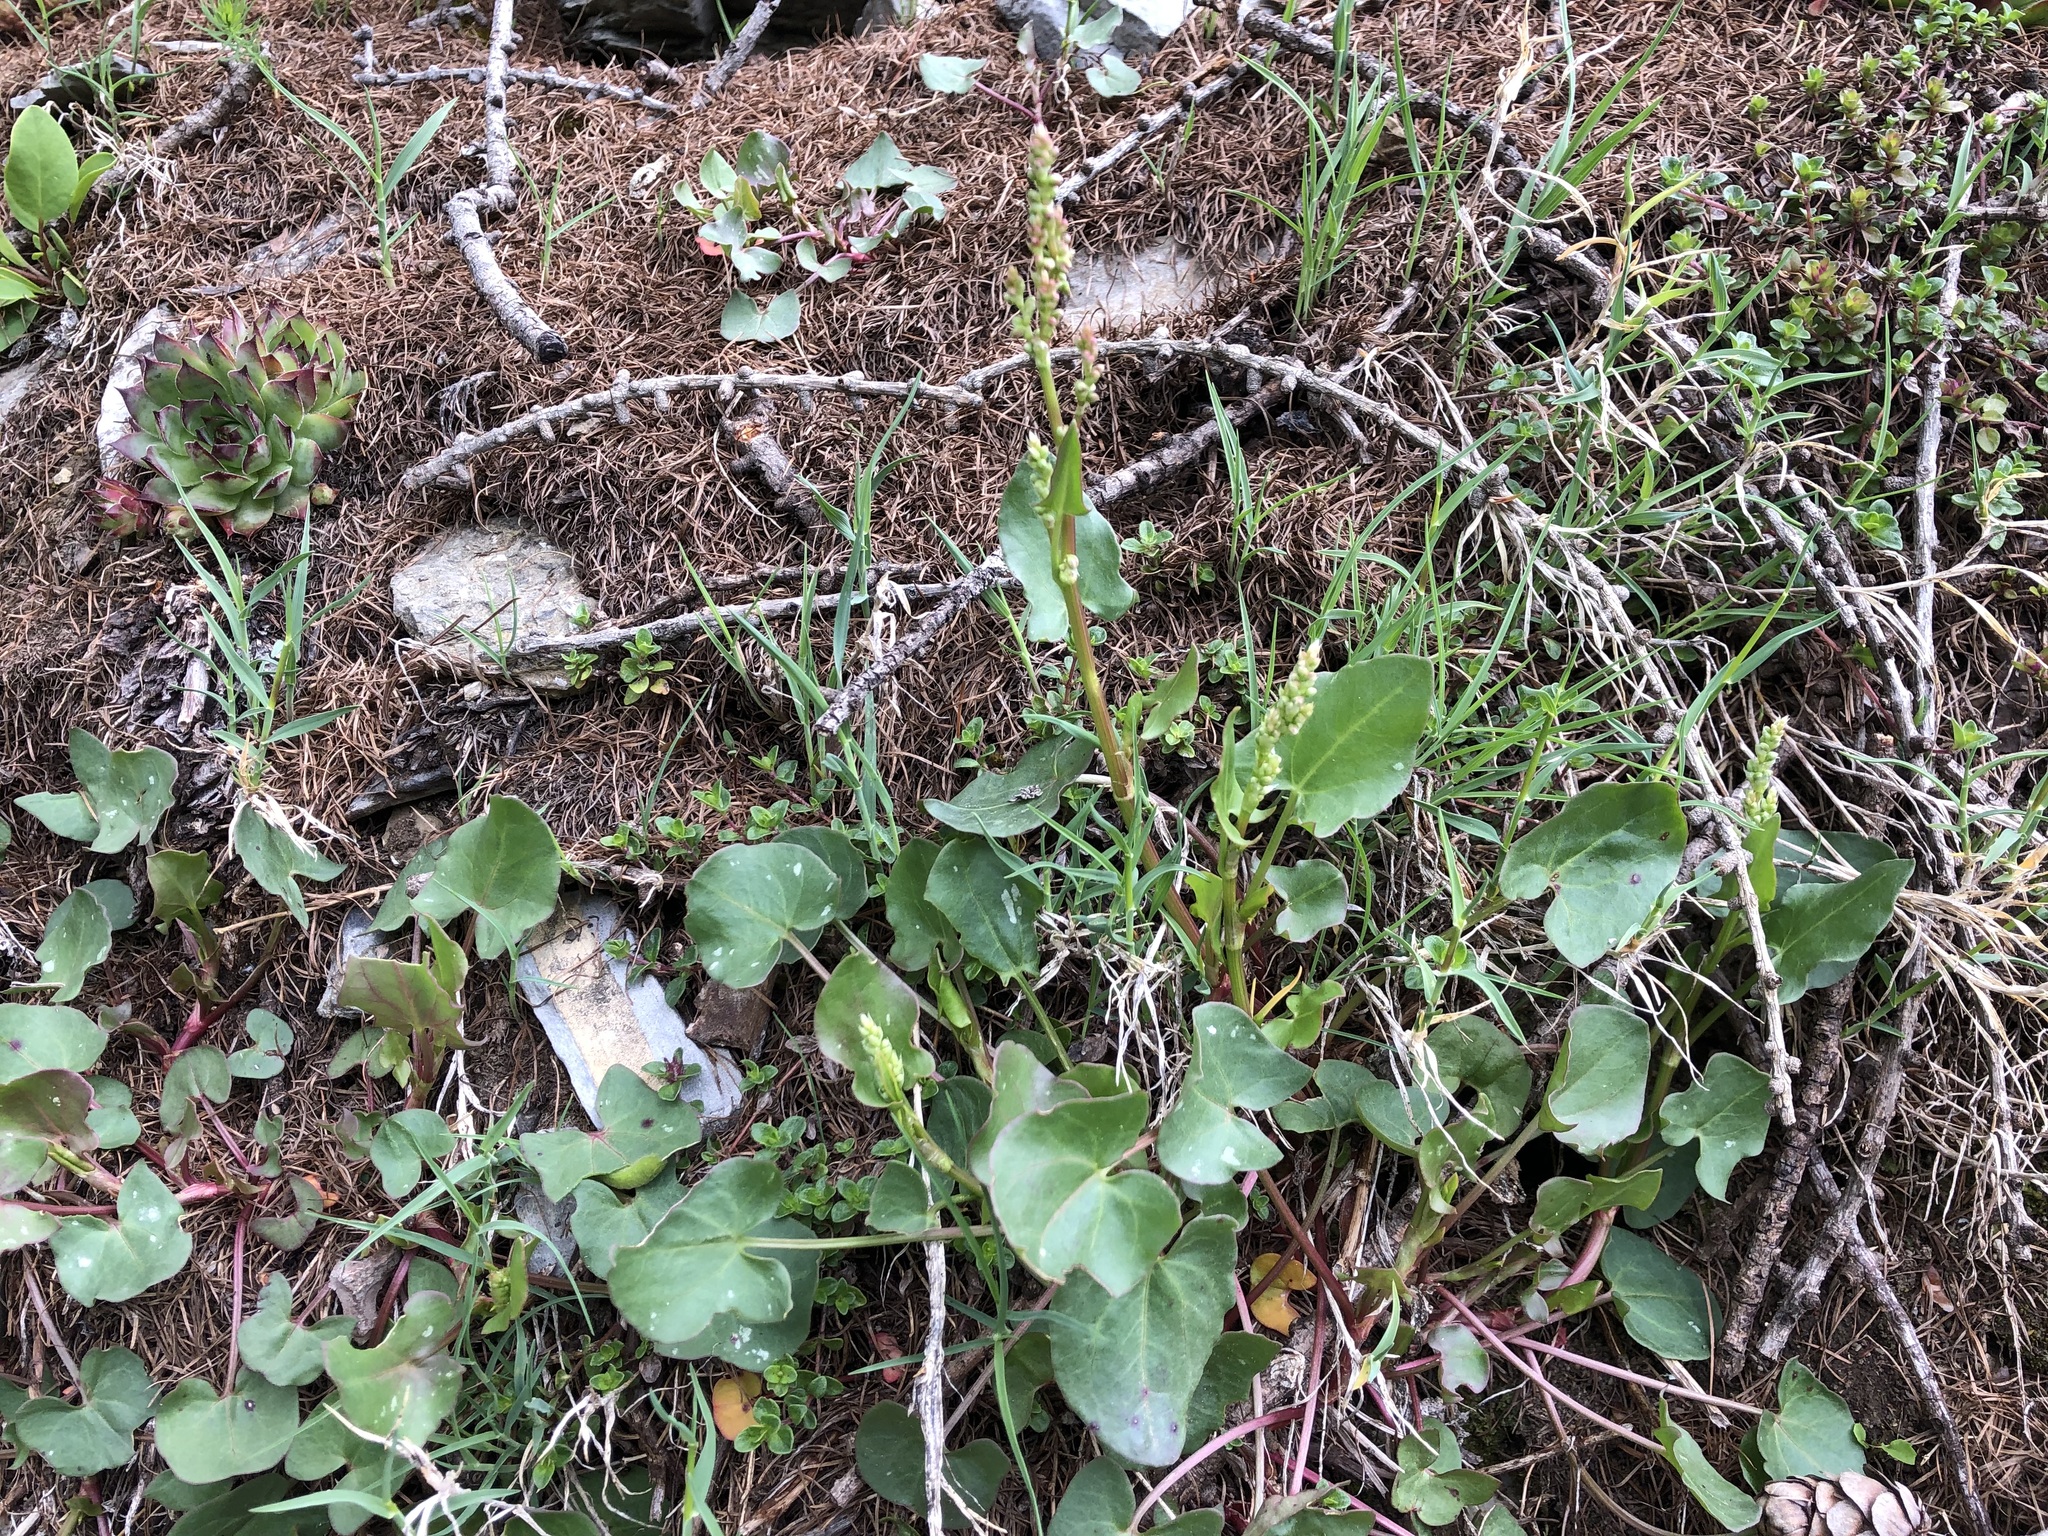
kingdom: Plantae
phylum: Tracheophyta
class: Magnoliopsida
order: Caryophyllales
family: Polygonaceae
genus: Rumex
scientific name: Rumex scutatus
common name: French sorrel
